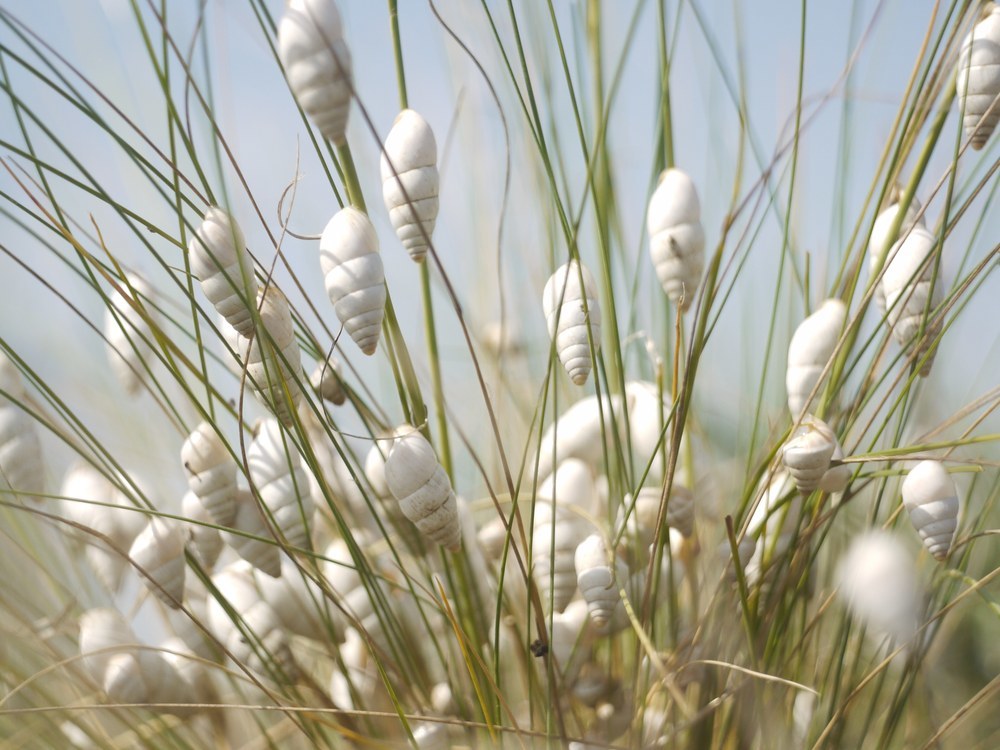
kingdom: Animalia
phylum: Mollusca
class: Gastropoda
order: Stylommatophora
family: Enidae
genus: Brephulopsis
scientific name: Brephulopsis cylindrica
